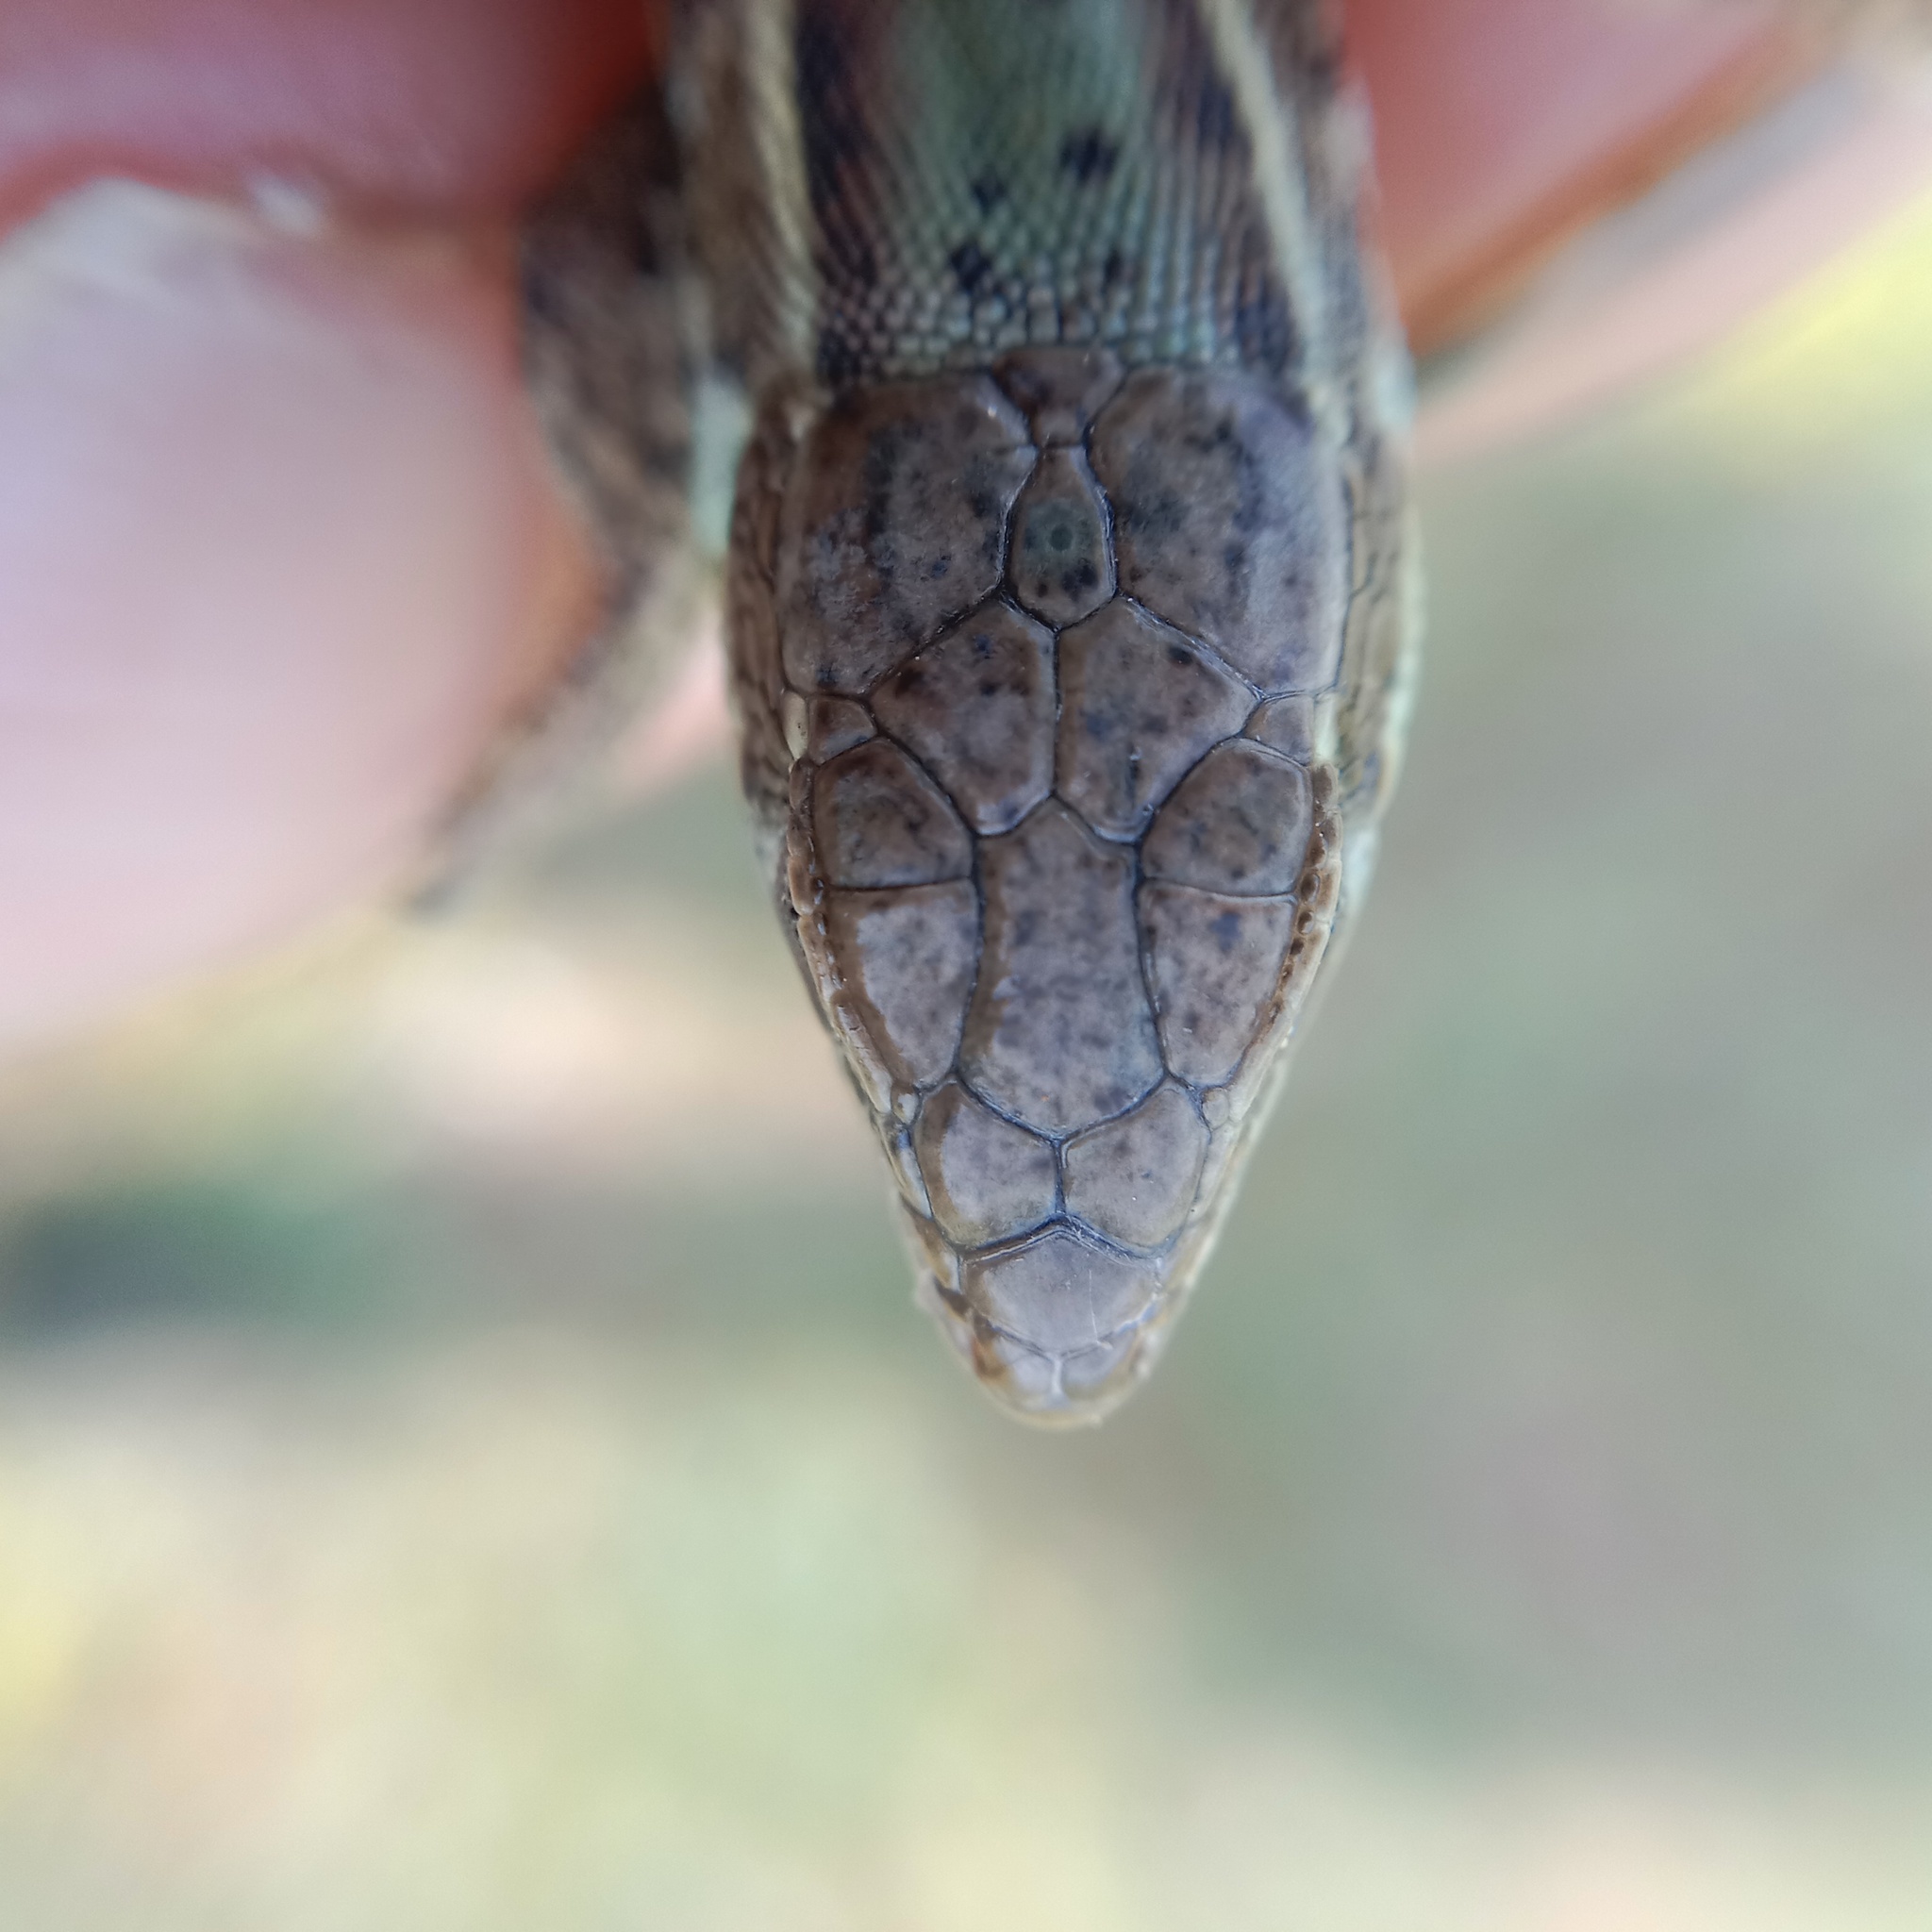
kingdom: Animalia
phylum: Chordata
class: Squamata
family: Lacertidae
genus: Podarcis
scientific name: Podarcis tauricus
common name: Balkan wall lizard
